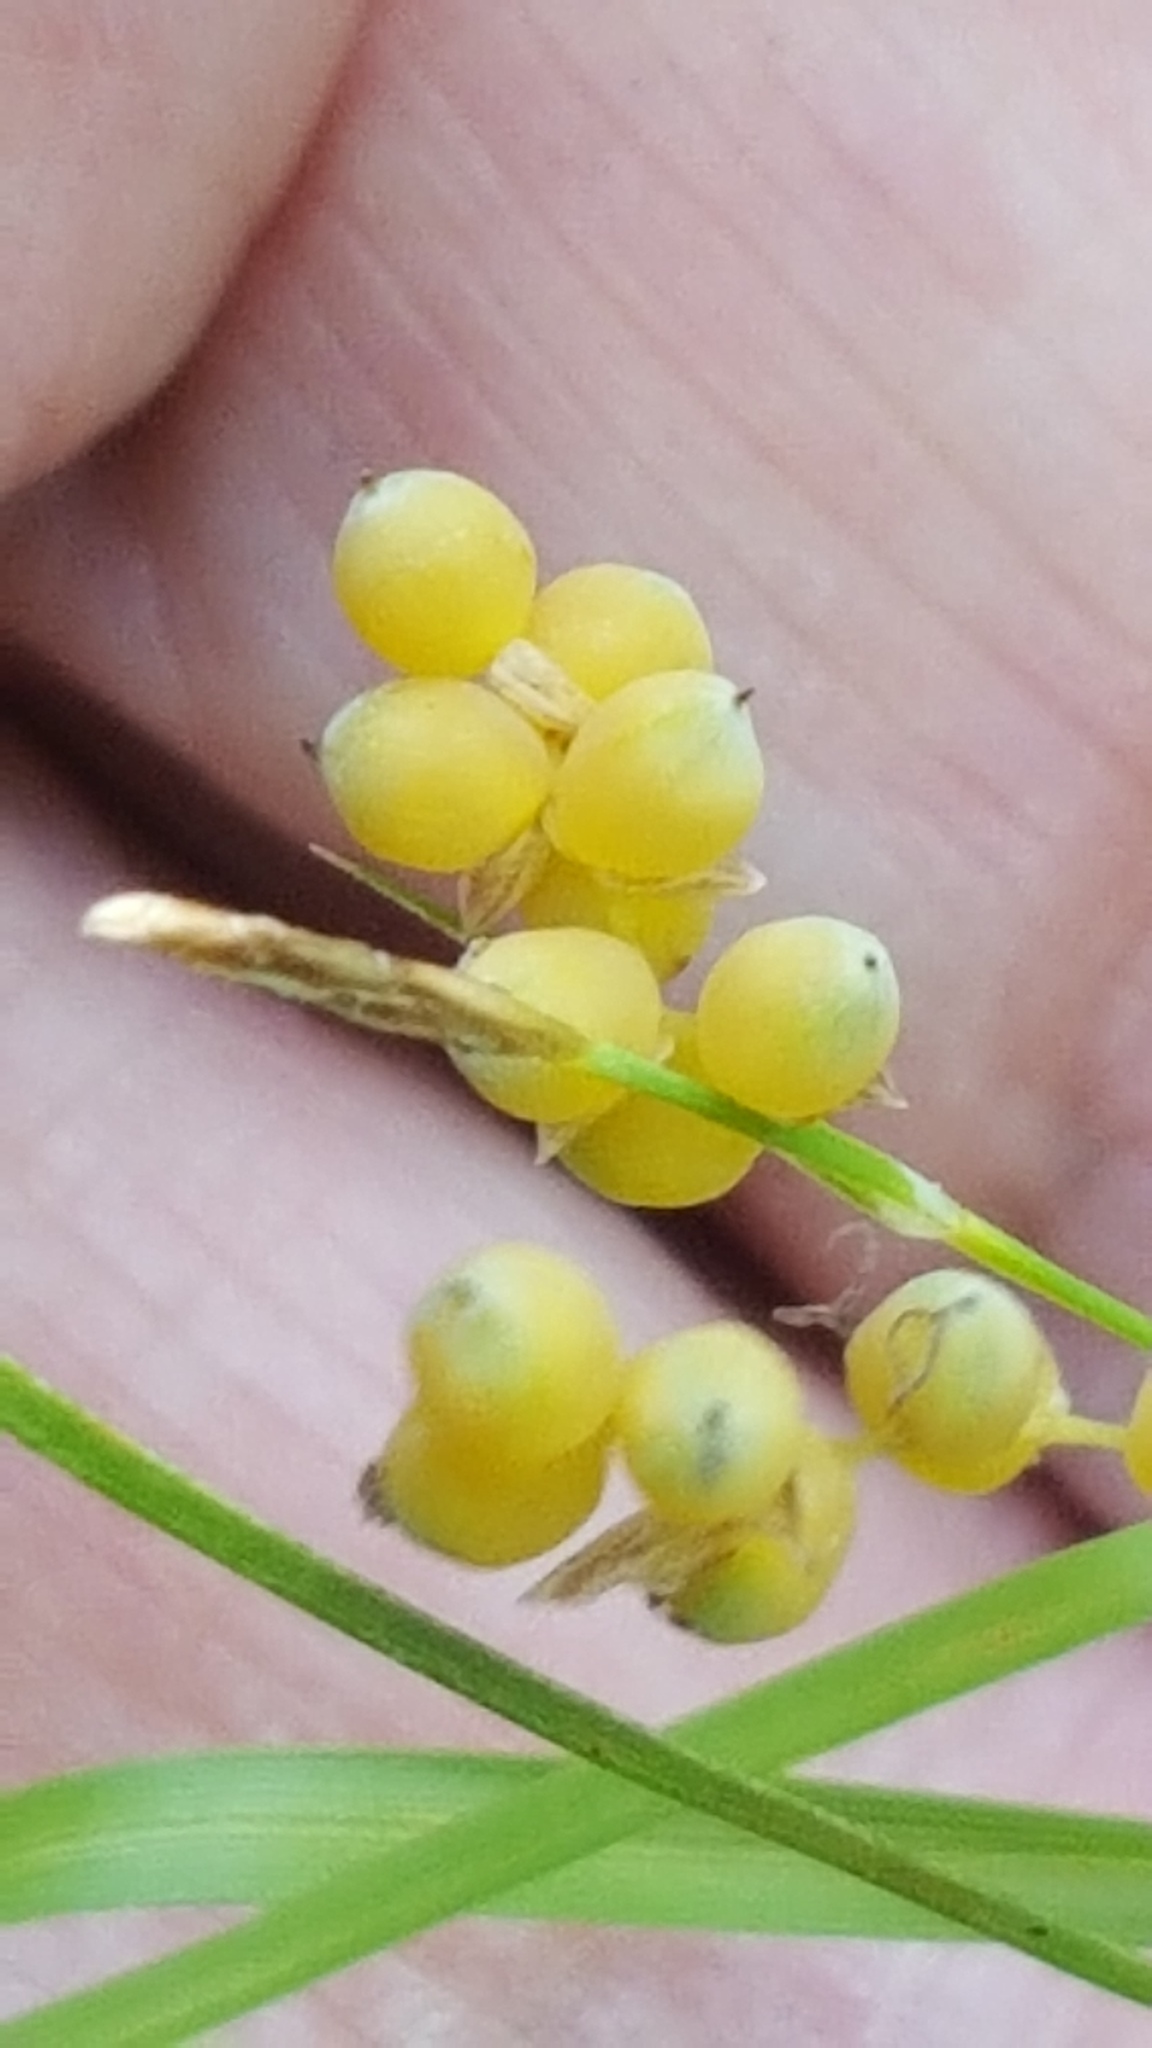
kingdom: Plantae
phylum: Tracheophyta
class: Liliopsida
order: Poales
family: Cyperaceae
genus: Carex
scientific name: Carex aurea
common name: Golden sedge
